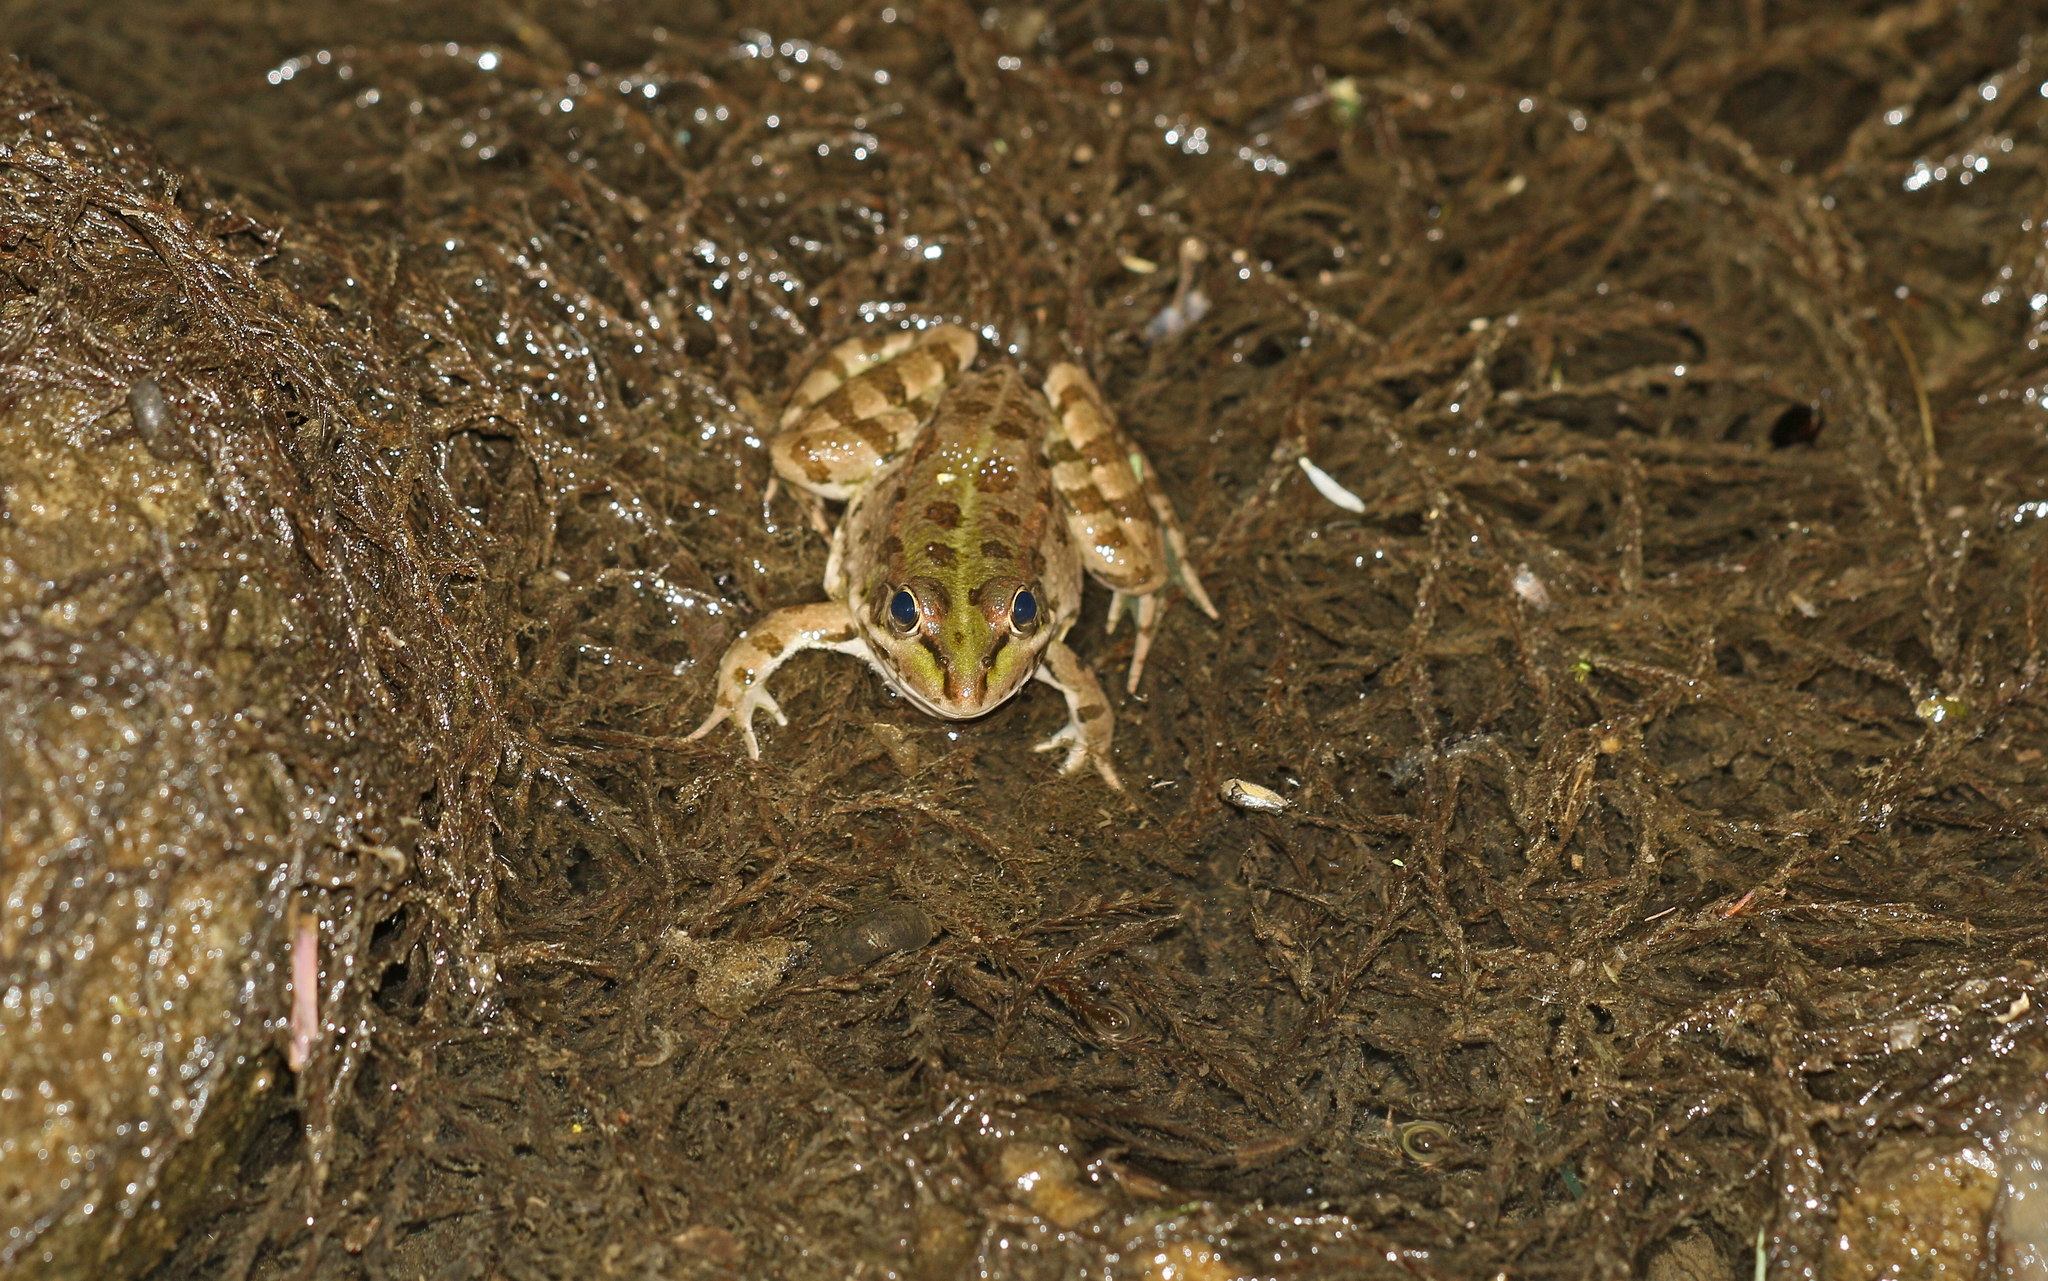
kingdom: Animalia
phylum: Chordata
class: Amphibia
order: Anura
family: Ranidae
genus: Pelophylax
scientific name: Pelophylax perezi
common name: Perez's frog
